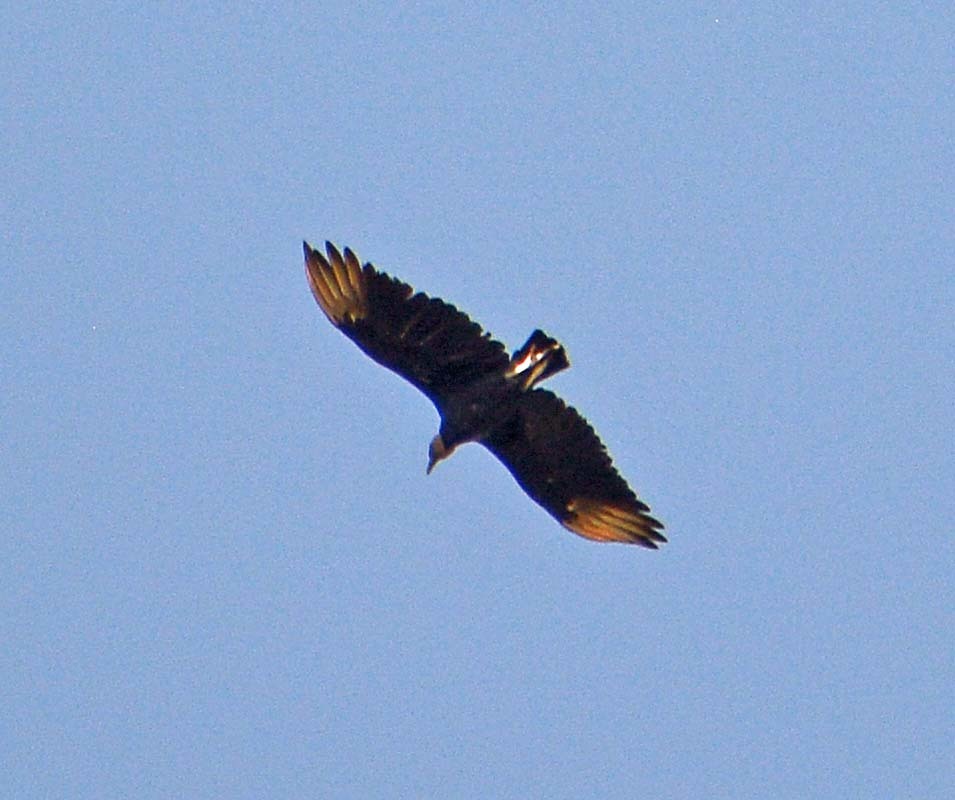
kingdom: Animalia
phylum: Chordata
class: Aves
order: Accipitriformes
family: Cathartidae
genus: Coragyps
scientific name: Coragyps atratus
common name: Black vulture
